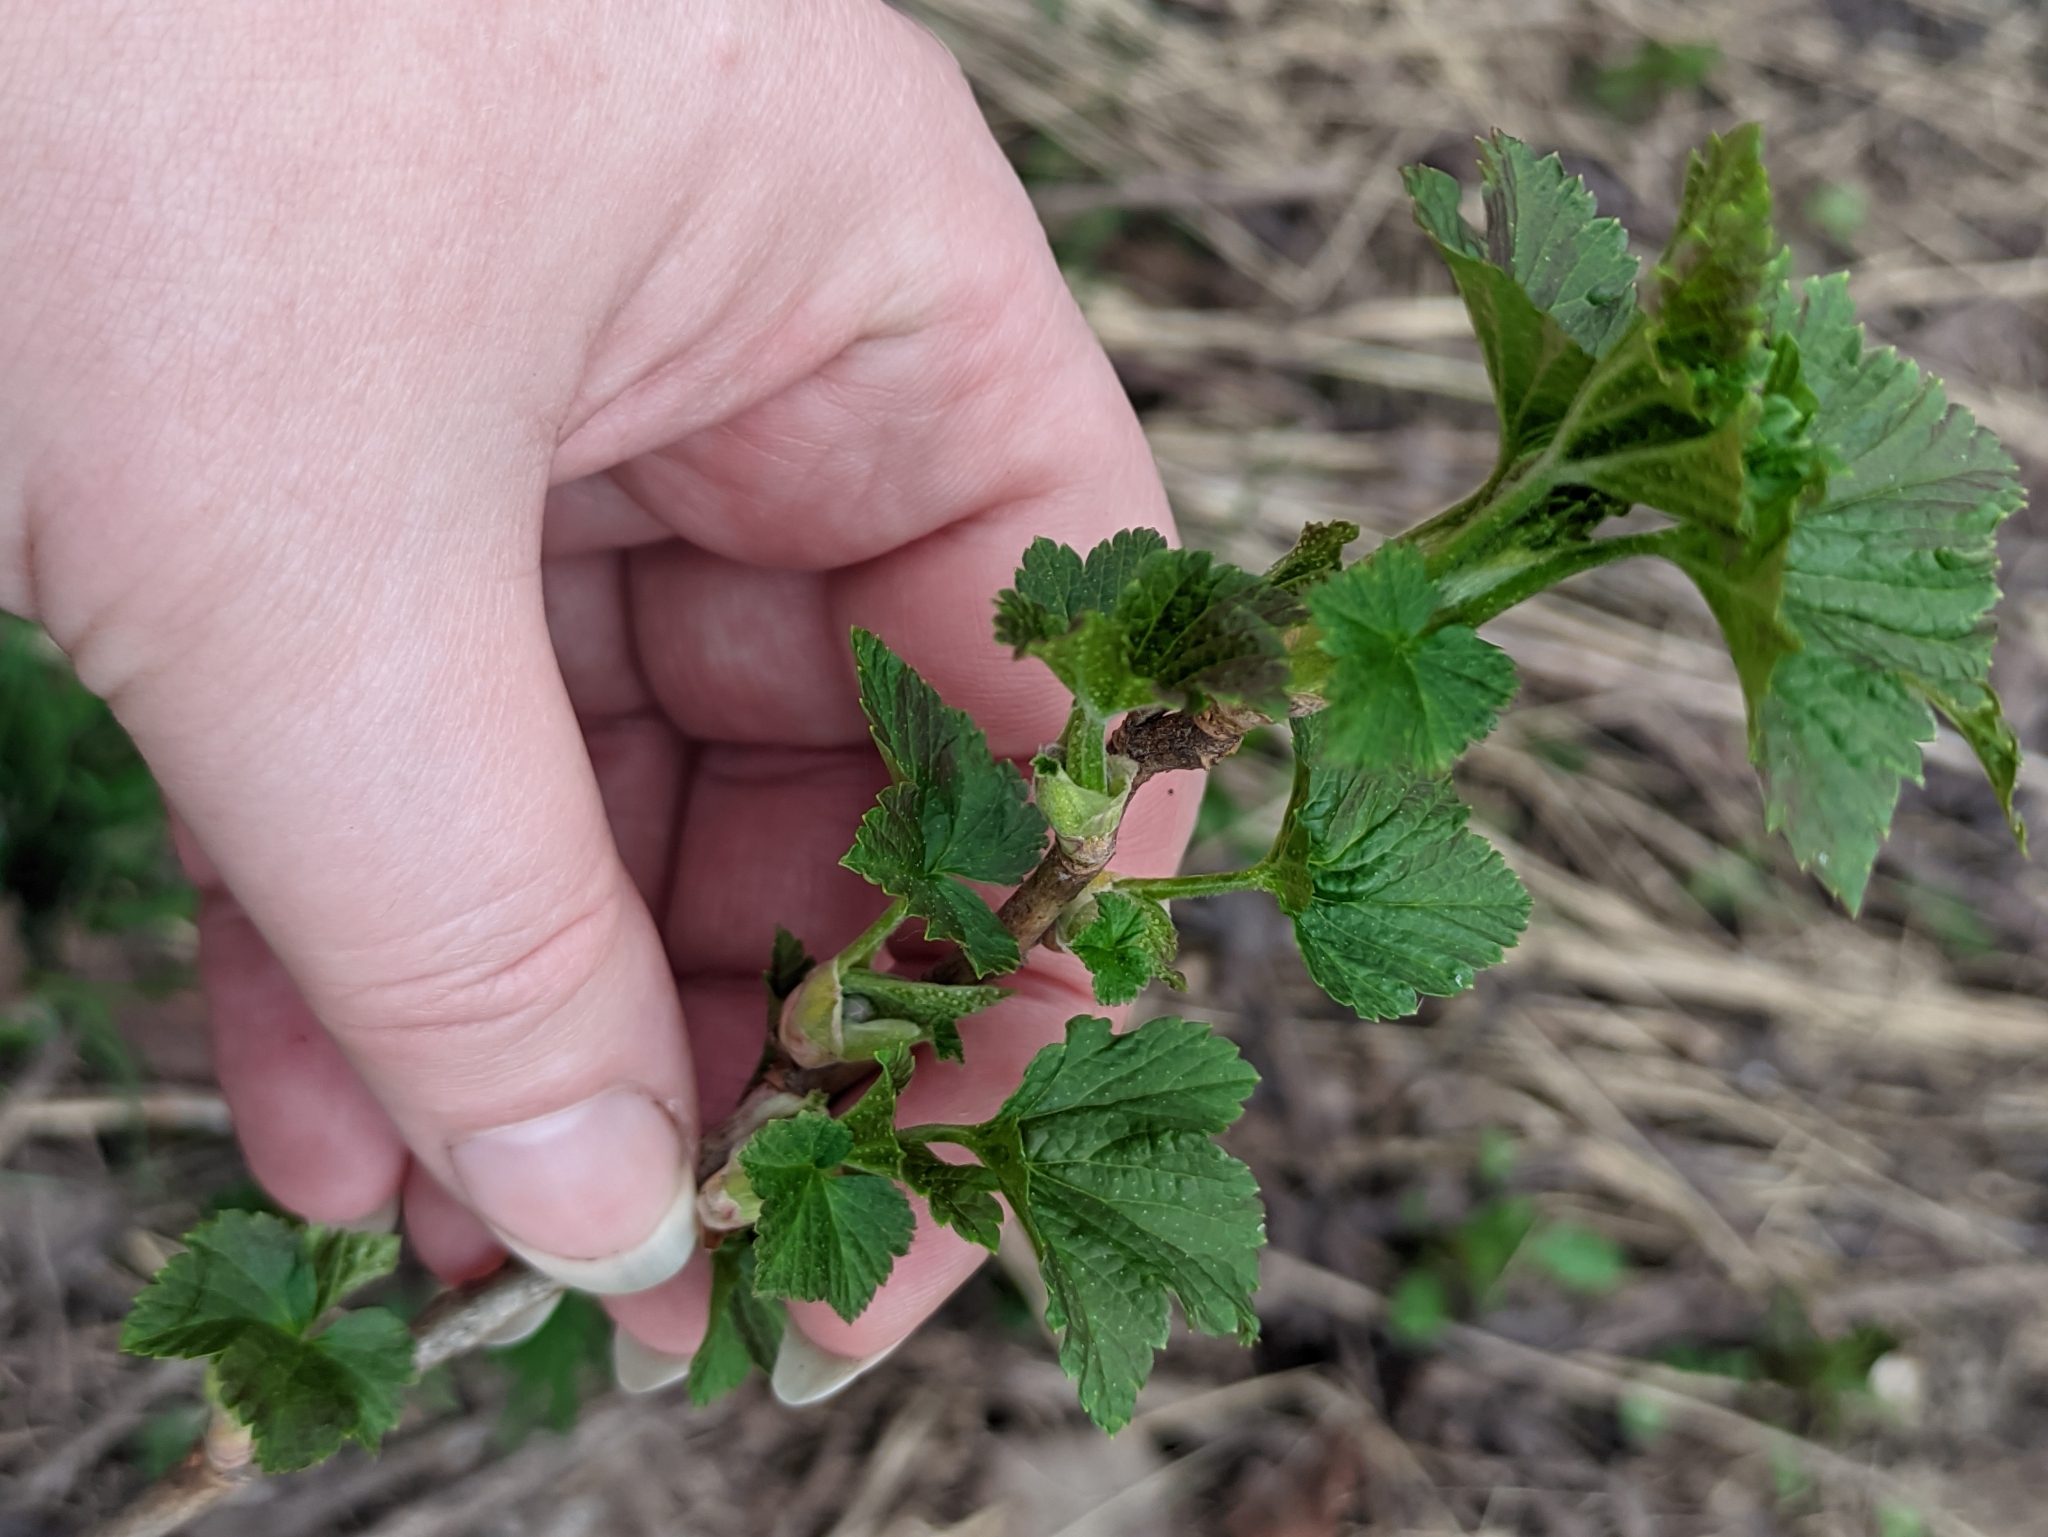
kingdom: Plantae
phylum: Tracheophyta
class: Magnoliopsida
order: Saxifragales
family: Grossulariaceae
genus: Ribes
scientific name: Ribes nigrum
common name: Black currant
